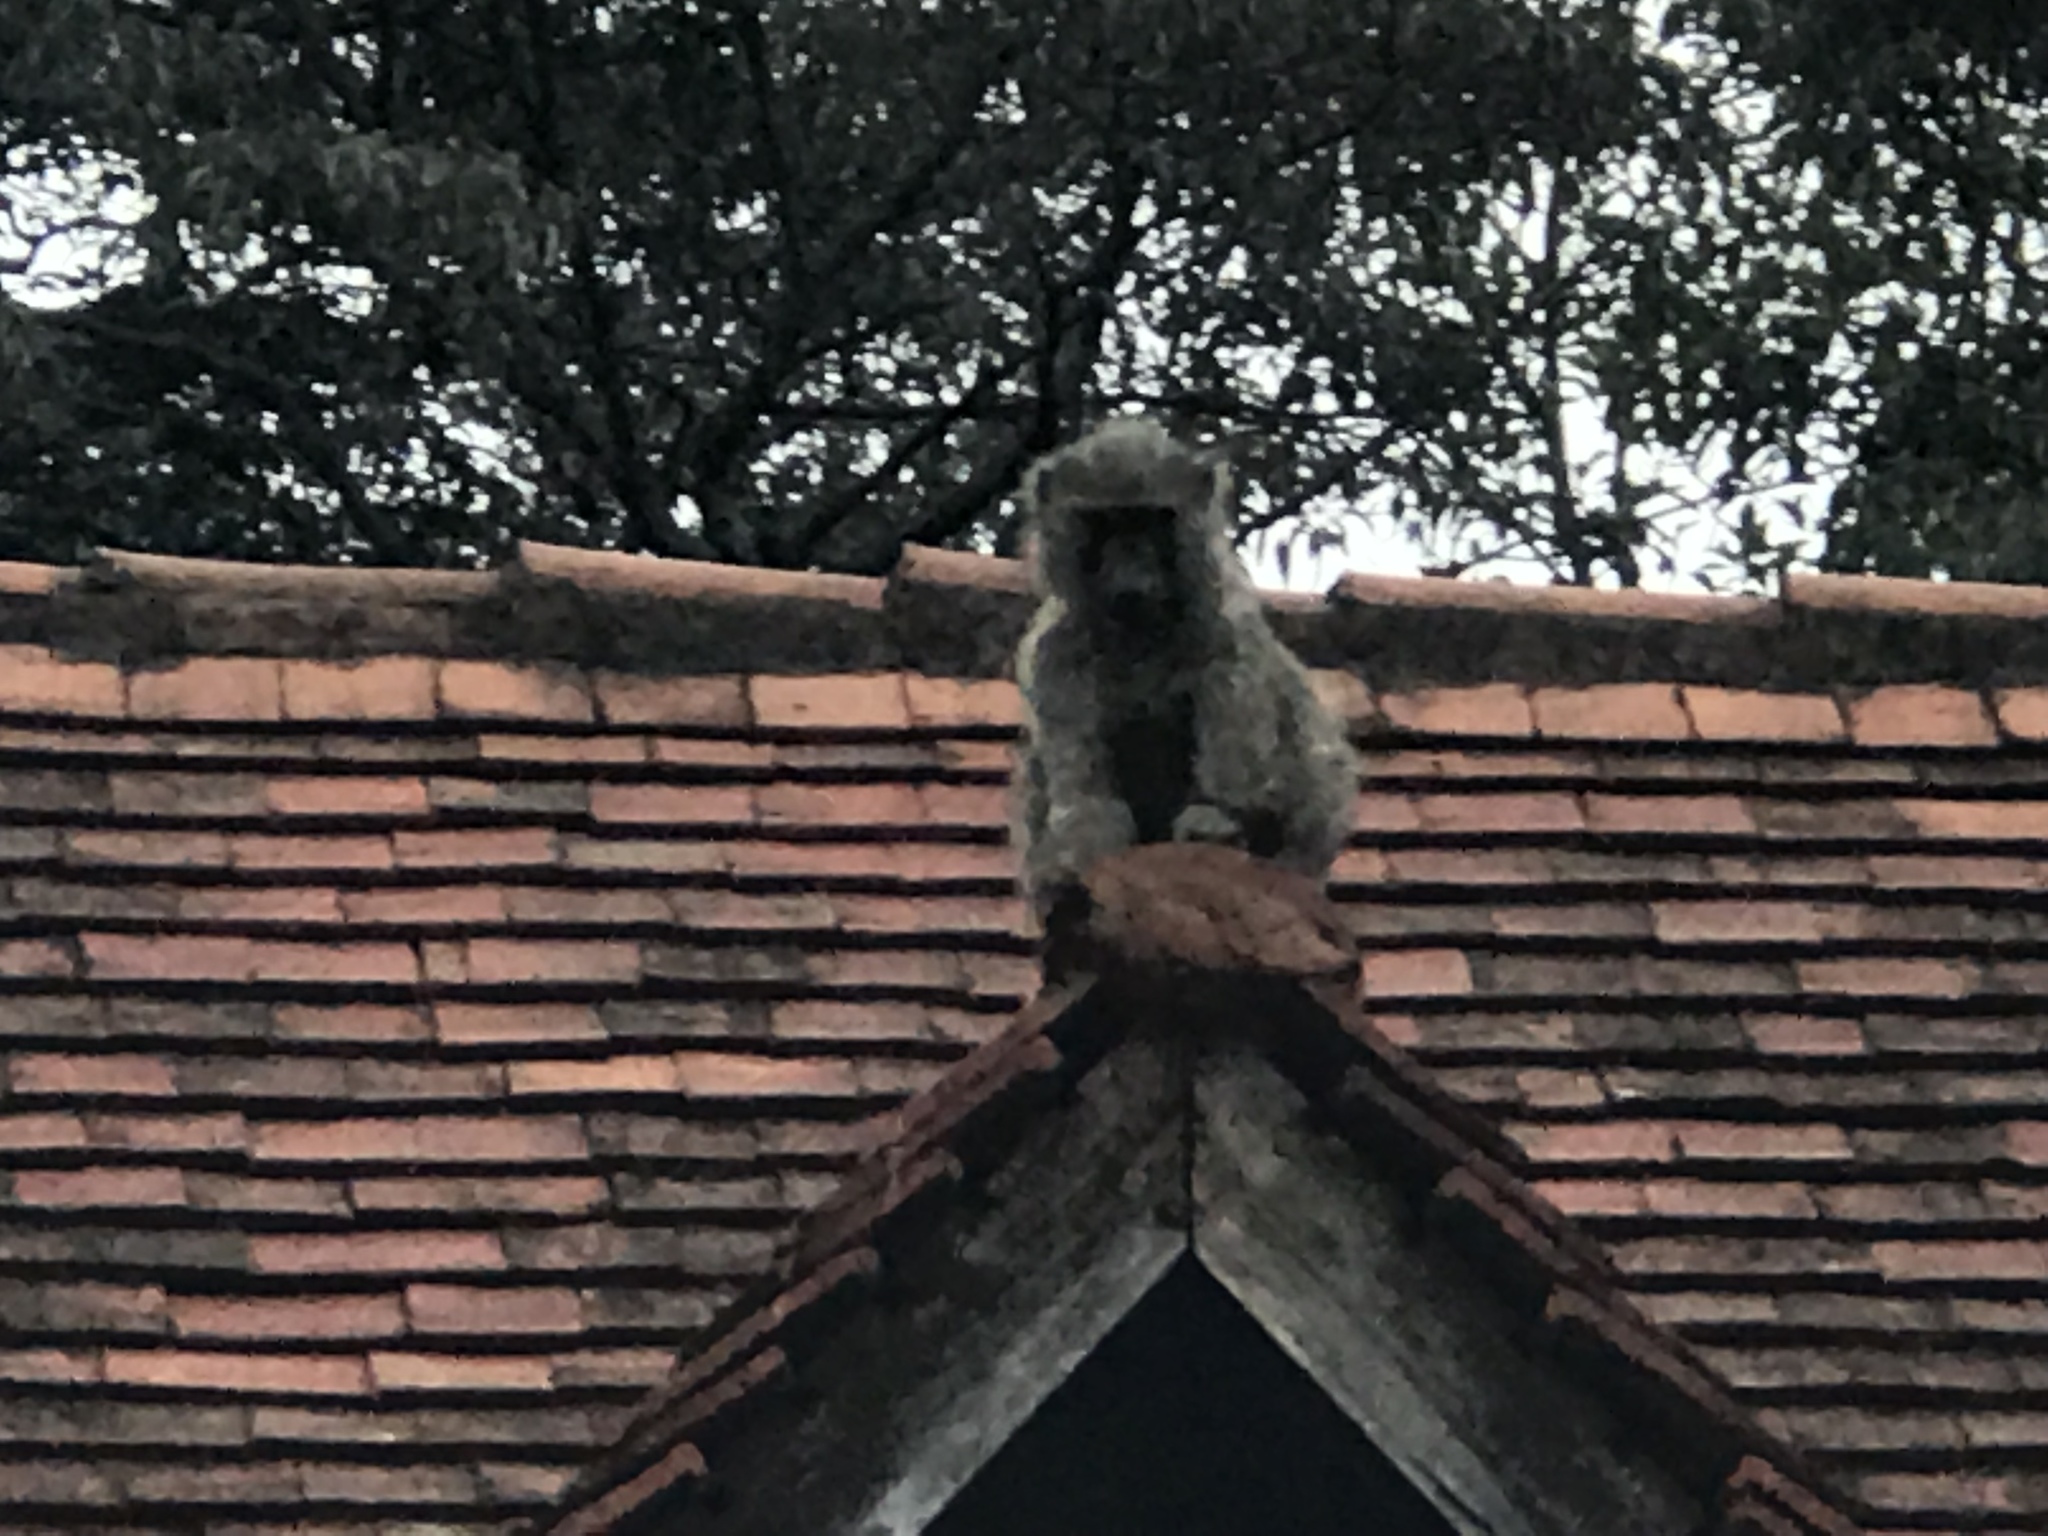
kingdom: Animalia
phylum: Chordata
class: Mammalia
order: Primates
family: Cercopithecidae
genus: Papio
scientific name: Papio anubis
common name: Olive baboon
